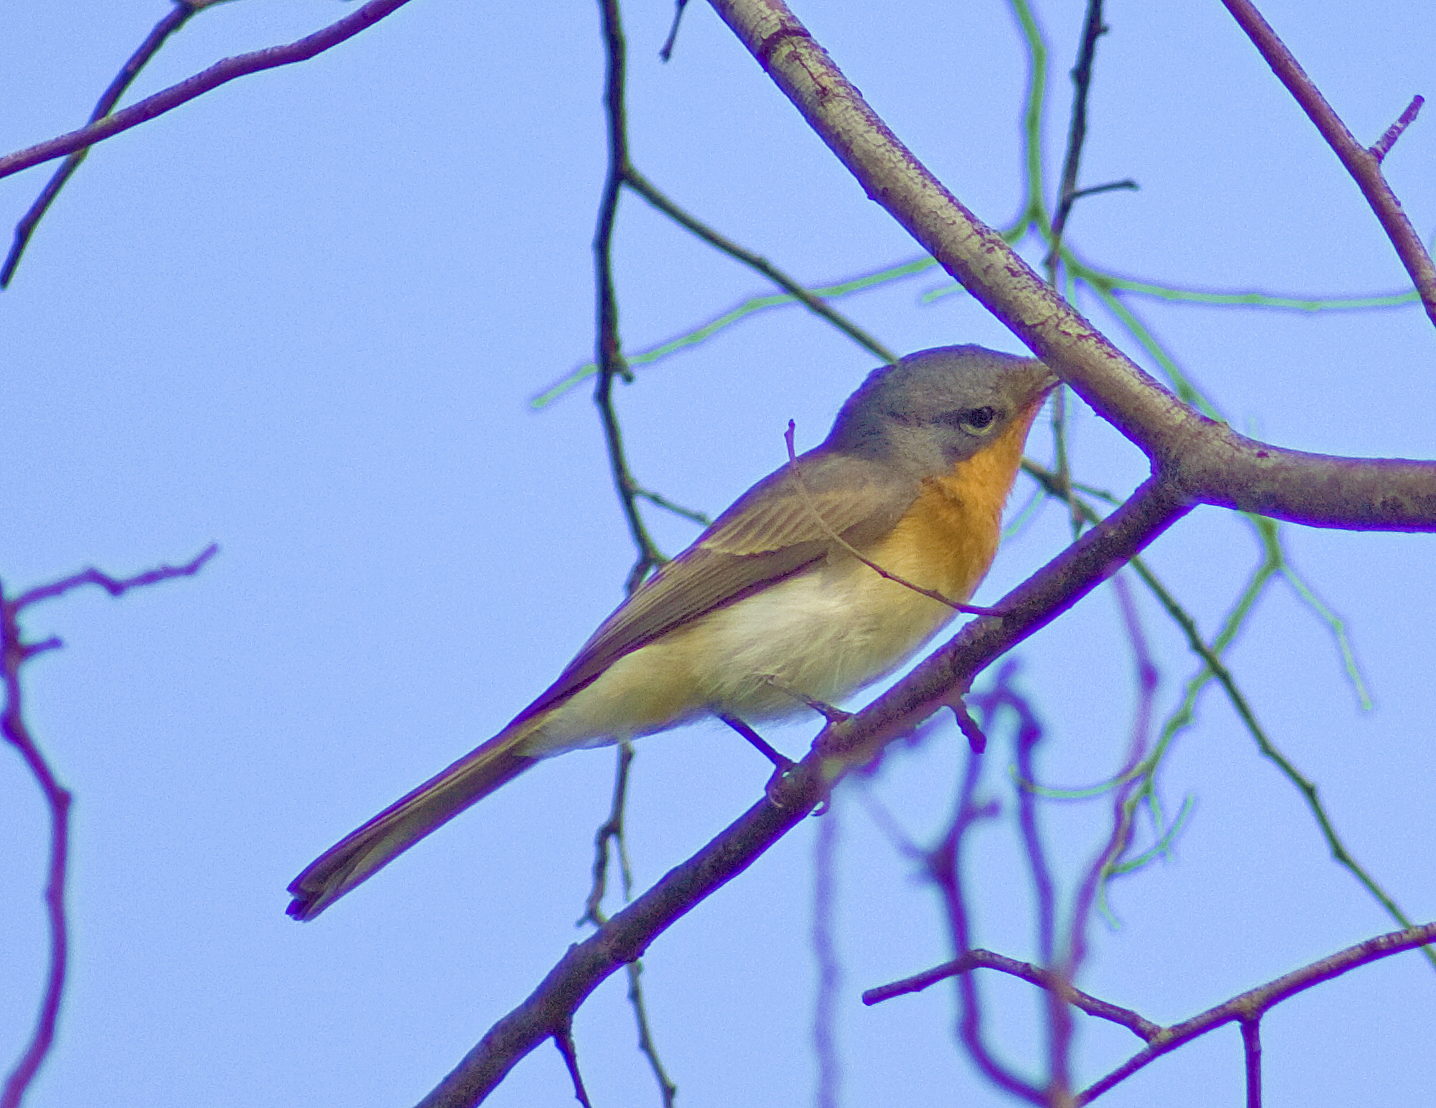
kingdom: Animalia
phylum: Chordata
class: Aves
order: Passeriformes
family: Monarchidae
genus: Myiagra
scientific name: Myiagra rubecula
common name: Leaden flycatcher
